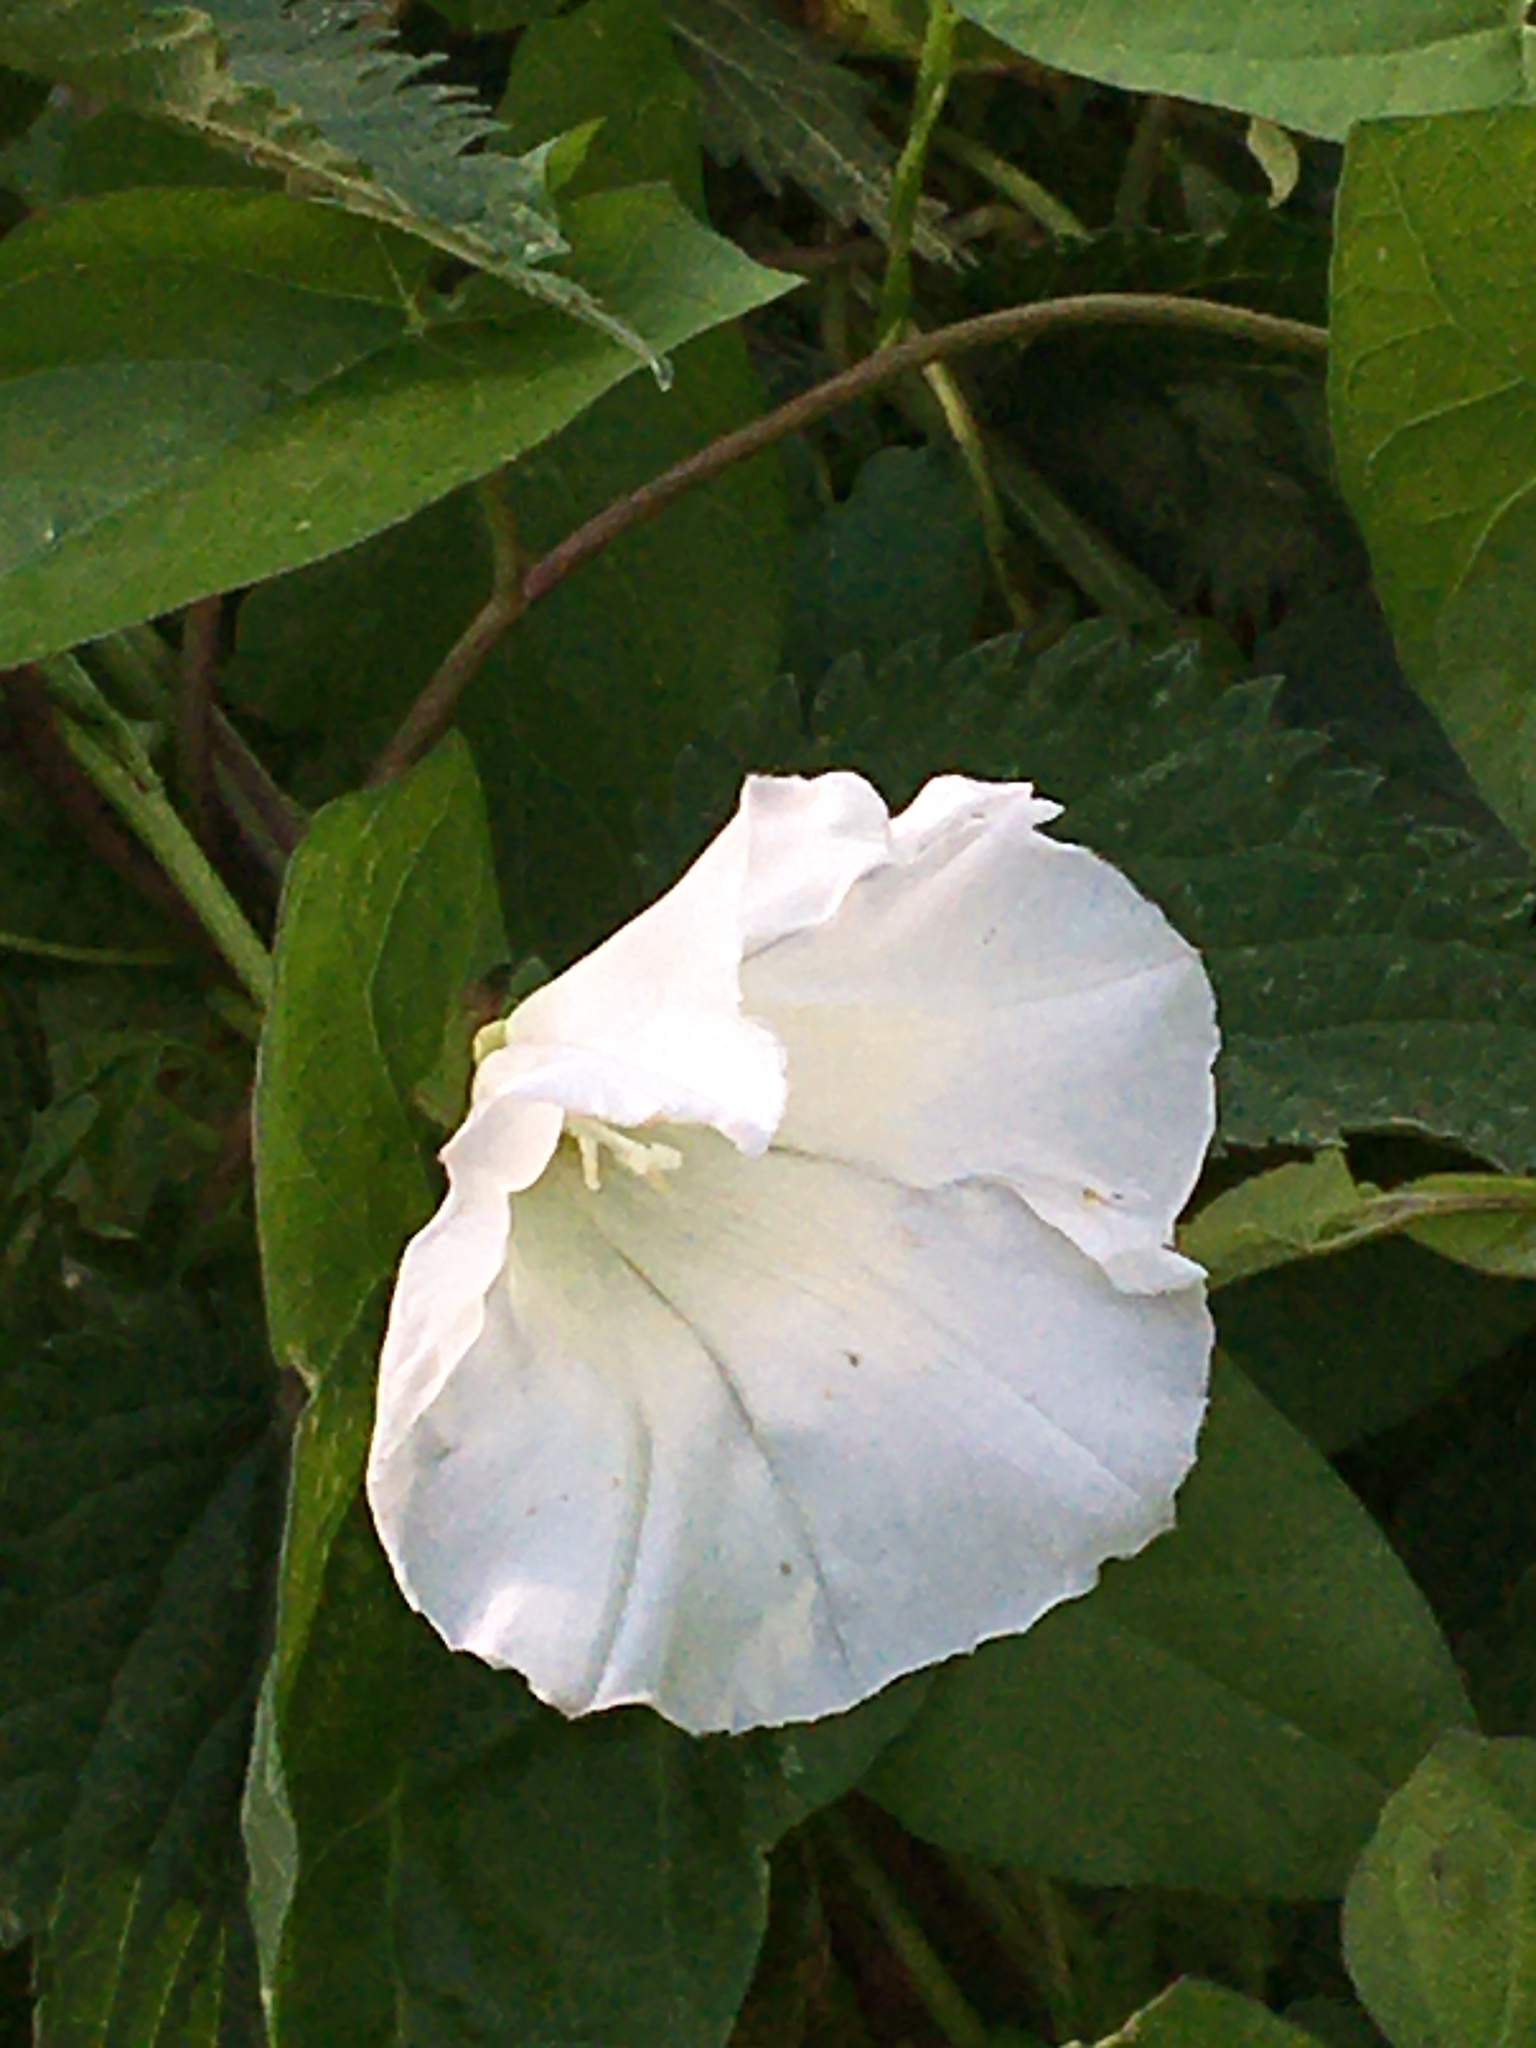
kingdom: Plantae
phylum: Tracheophyta
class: Magnoliopsida
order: Solanales
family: Convolvulaceae
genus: Calystegia
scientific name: Calystegia
